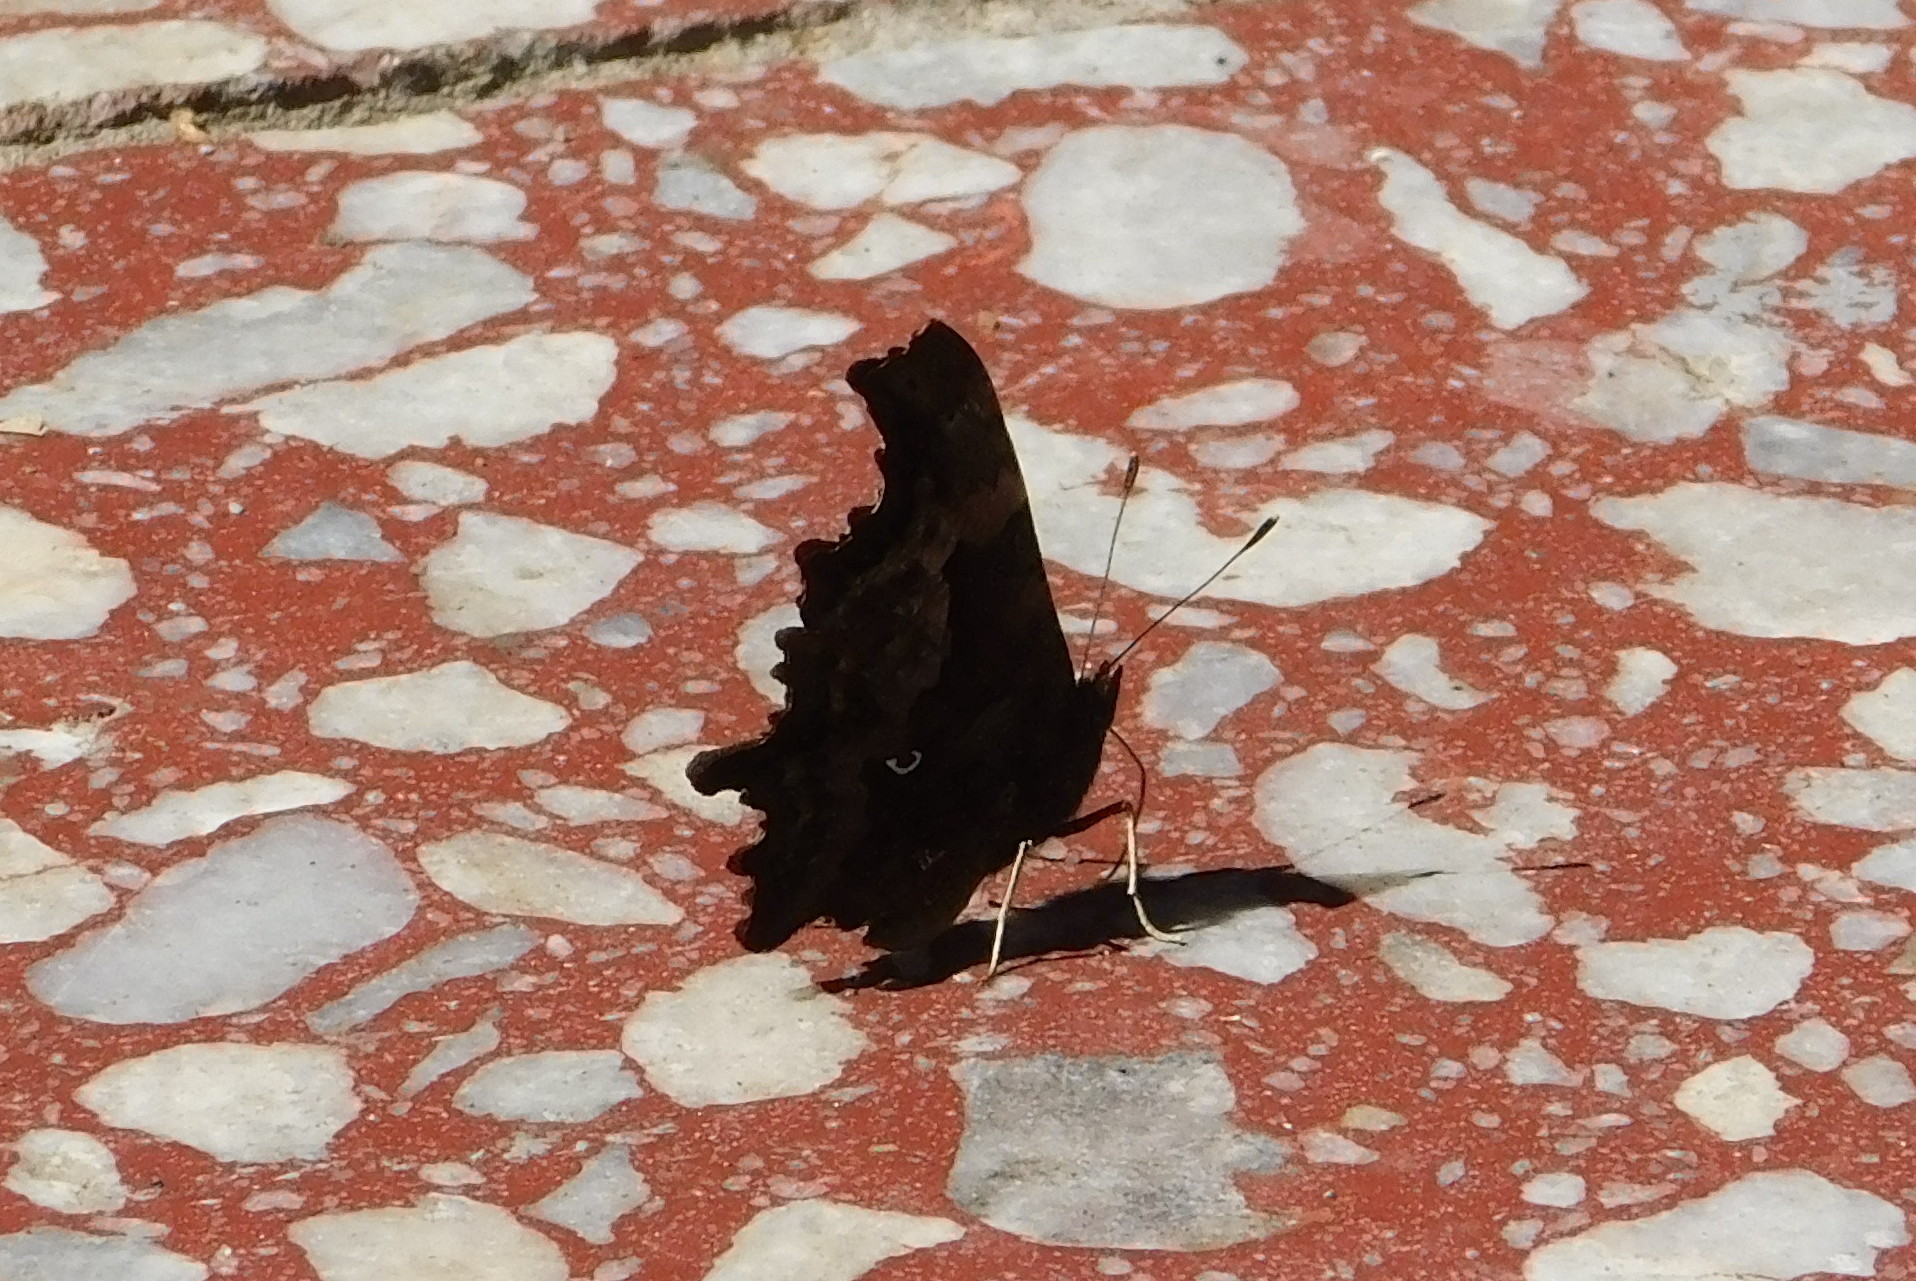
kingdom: Animalia
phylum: Arthropoda
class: Insecta
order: Lepidoptera
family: Nymphalidae
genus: Polygonia
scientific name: Polygonia c-album
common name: Comma
